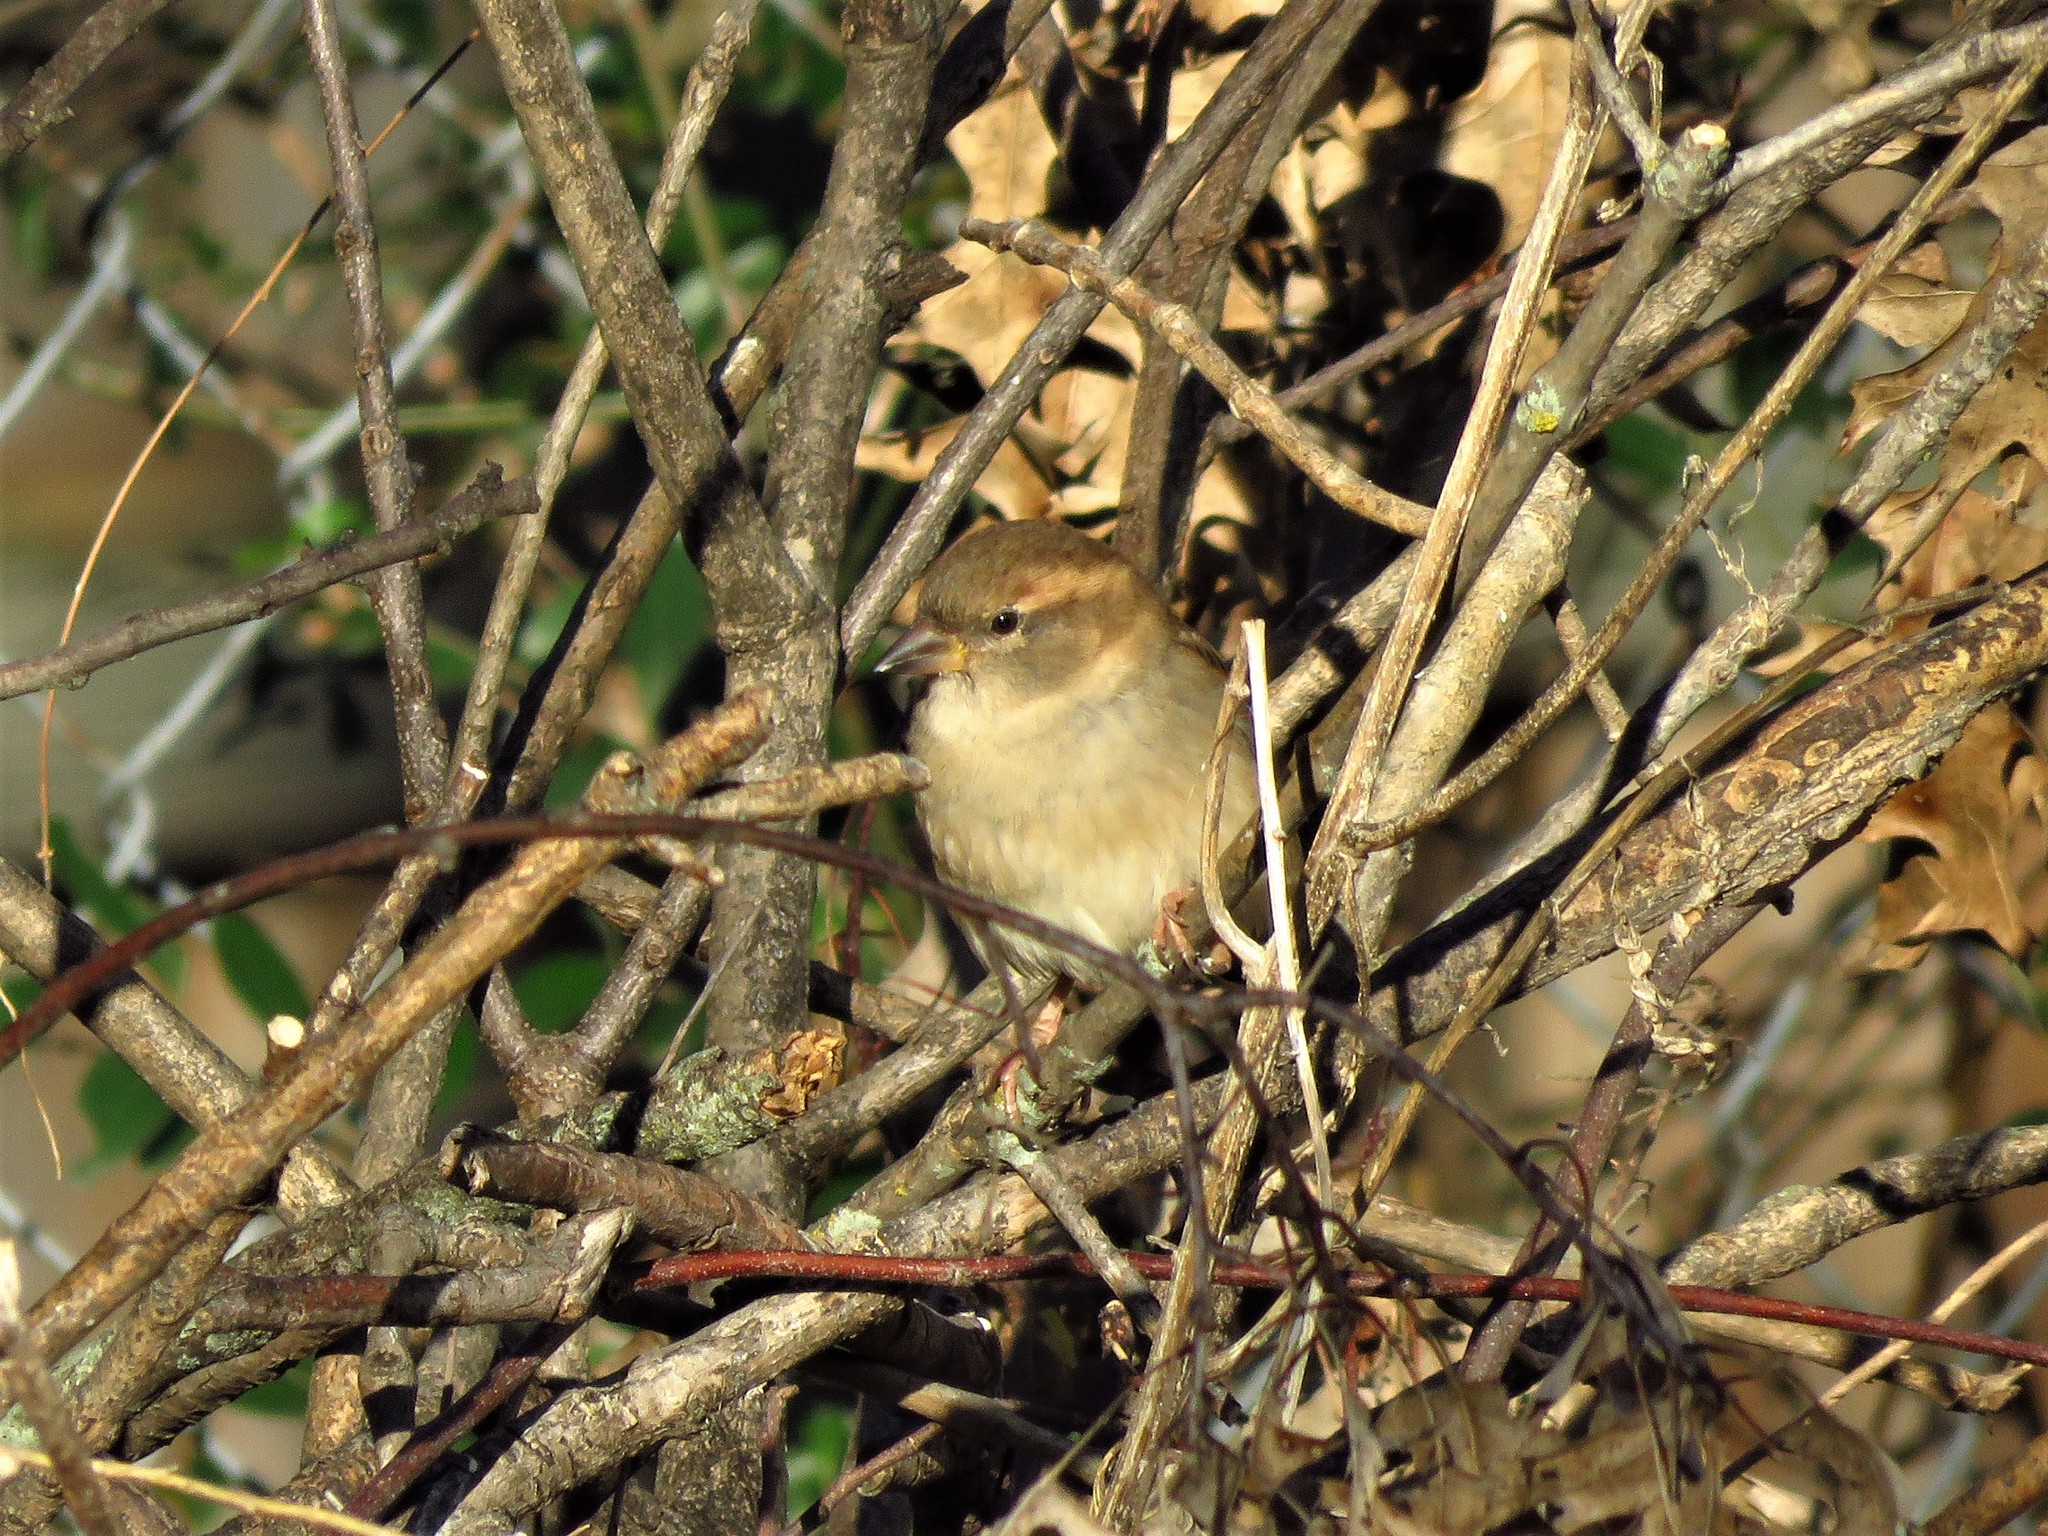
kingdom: Animalia
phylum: Chordata
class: Aves
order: Passeriformes
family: Passeridae
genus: Passer
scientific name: Passer domesticus
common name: House sparrow
